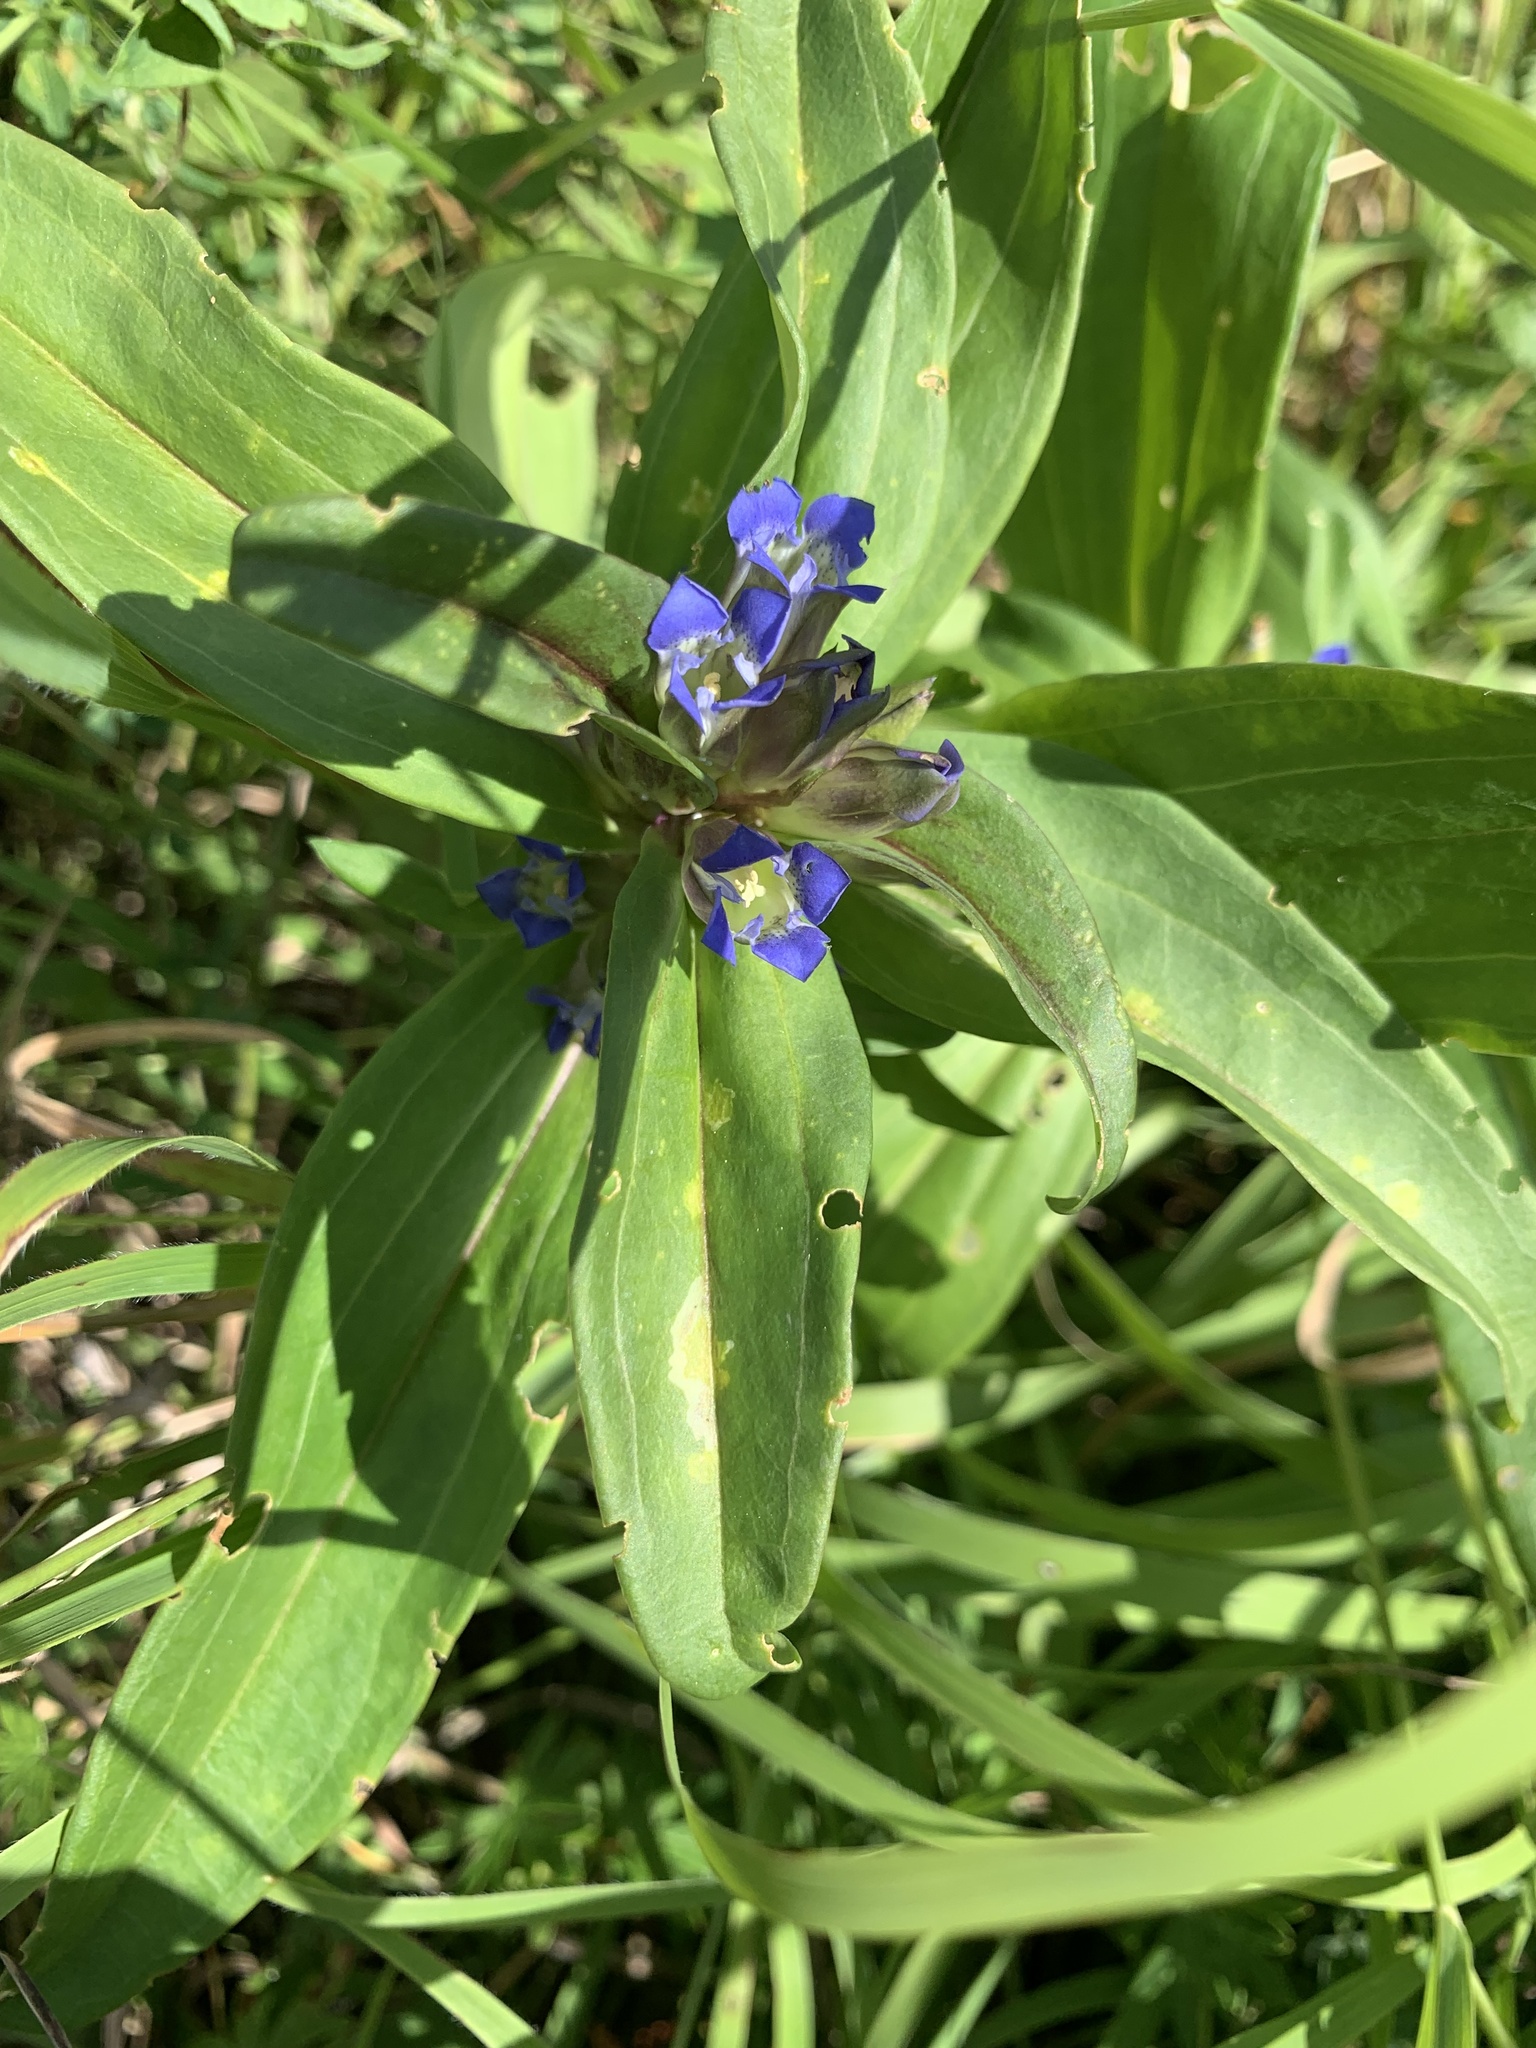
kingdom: Plantae
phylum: Tracheophyta
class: Magnoliopsida
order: Gentianales
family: Gentianaceae
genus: Gentiana
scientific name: Gentiana cruciata
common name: Cross gentian
